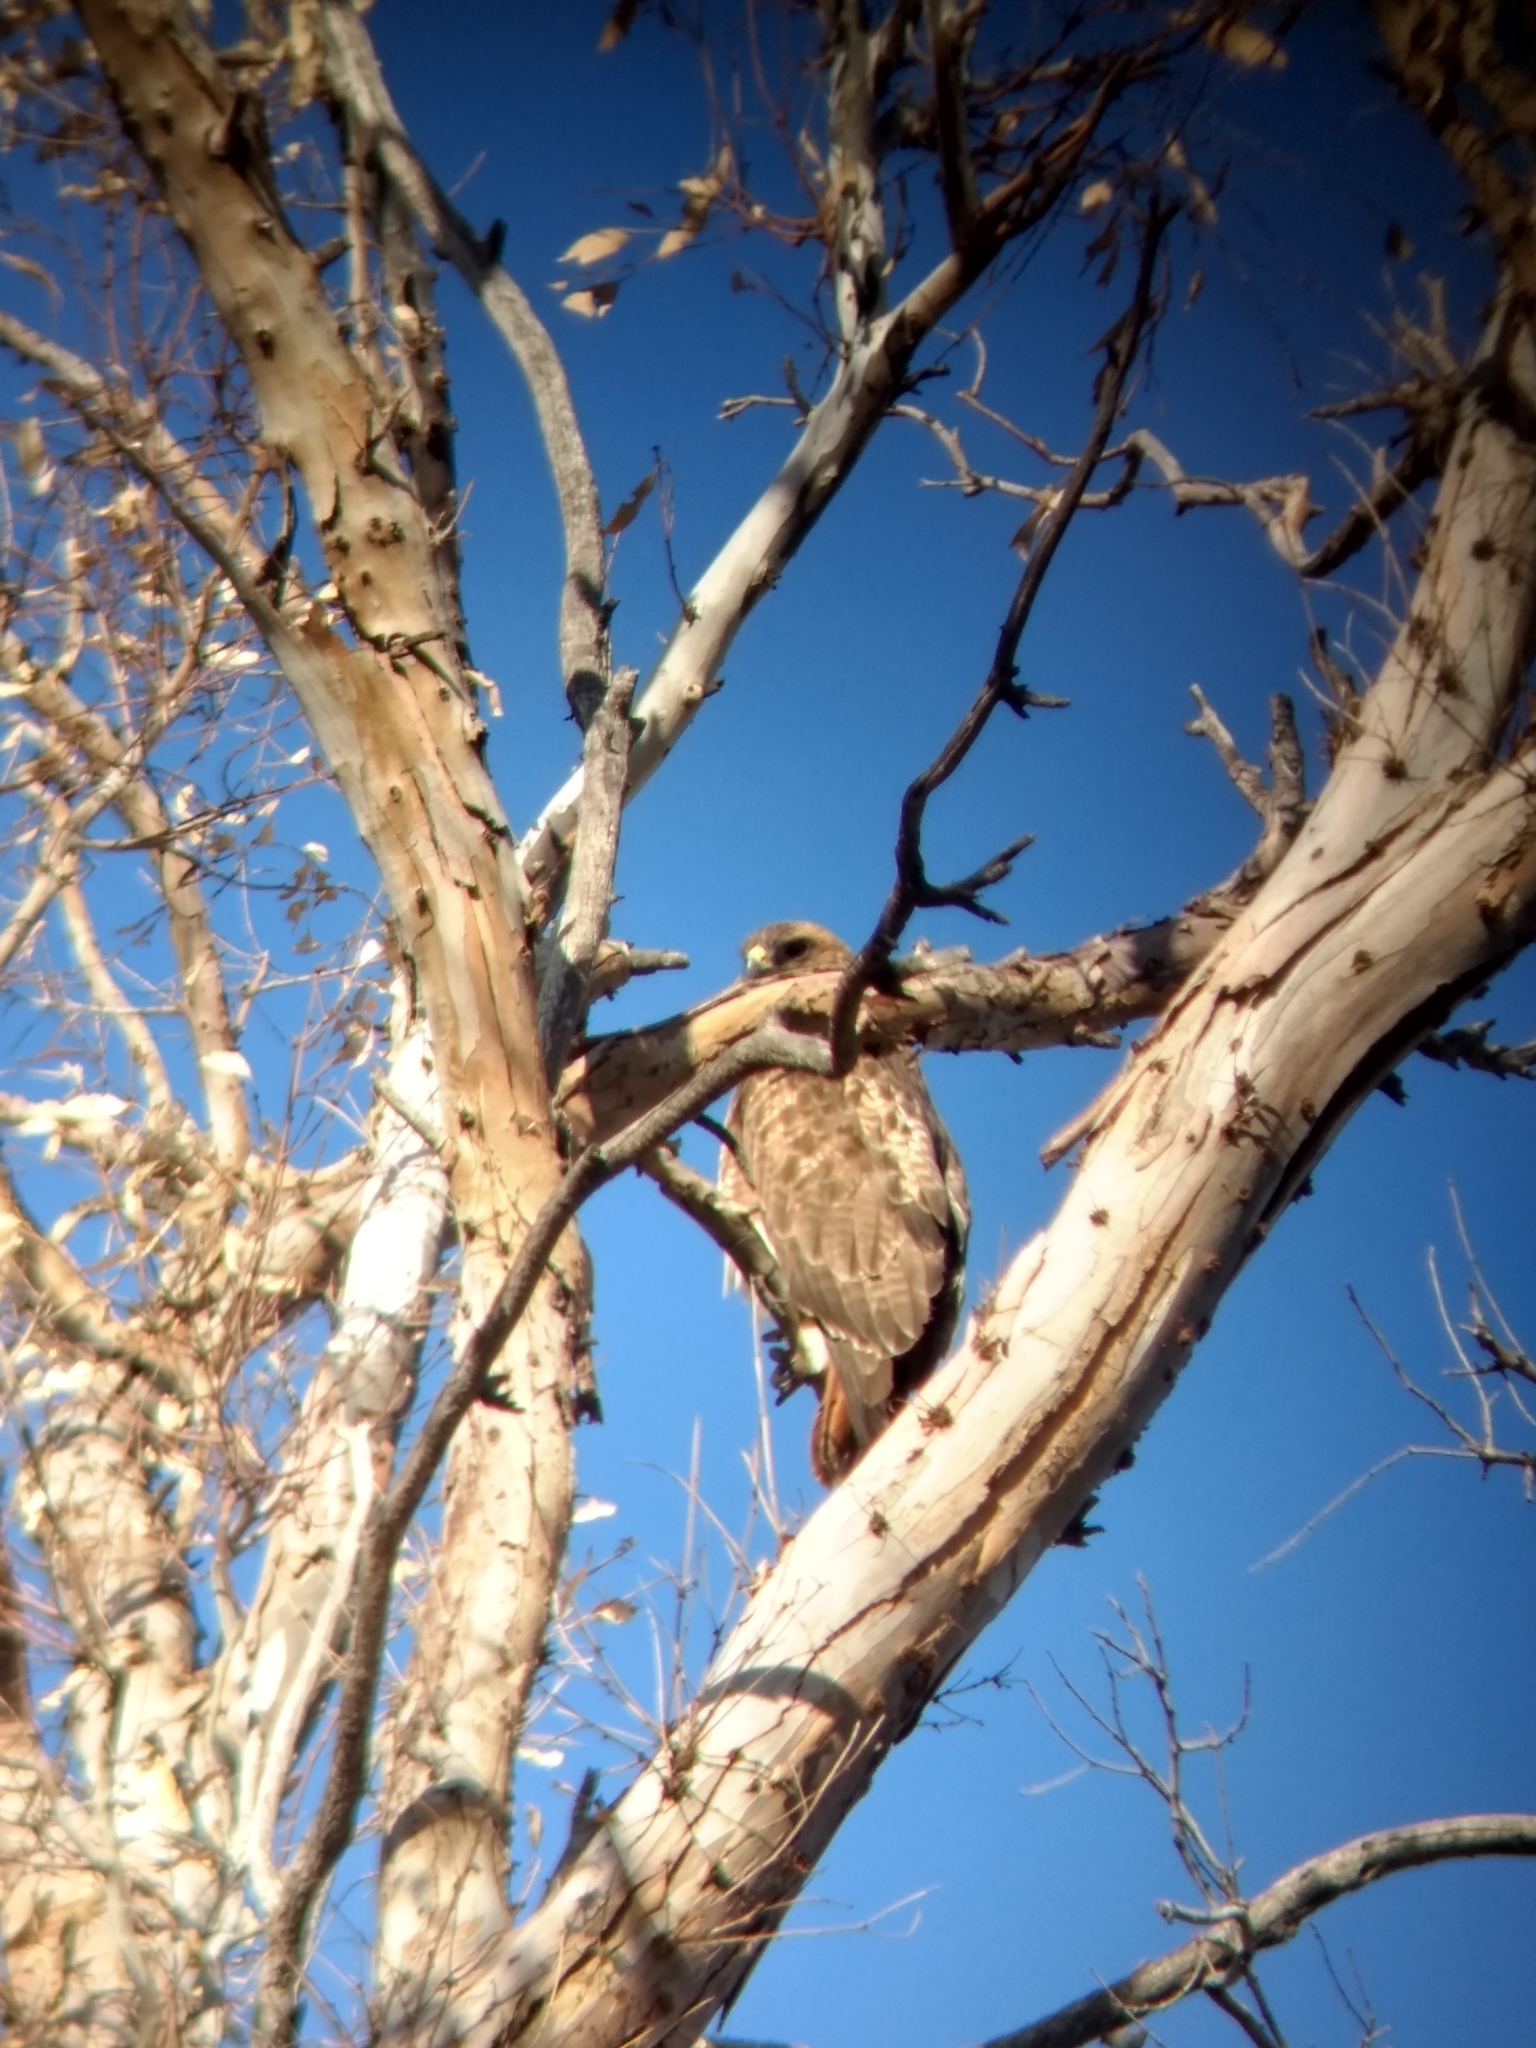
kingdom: Animalia
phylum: Chordata
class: Aves
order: Accipitriformes
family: Accipitridae
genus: Buteo
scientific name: Buteo jamaicensis
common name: Red-tailed hawk
